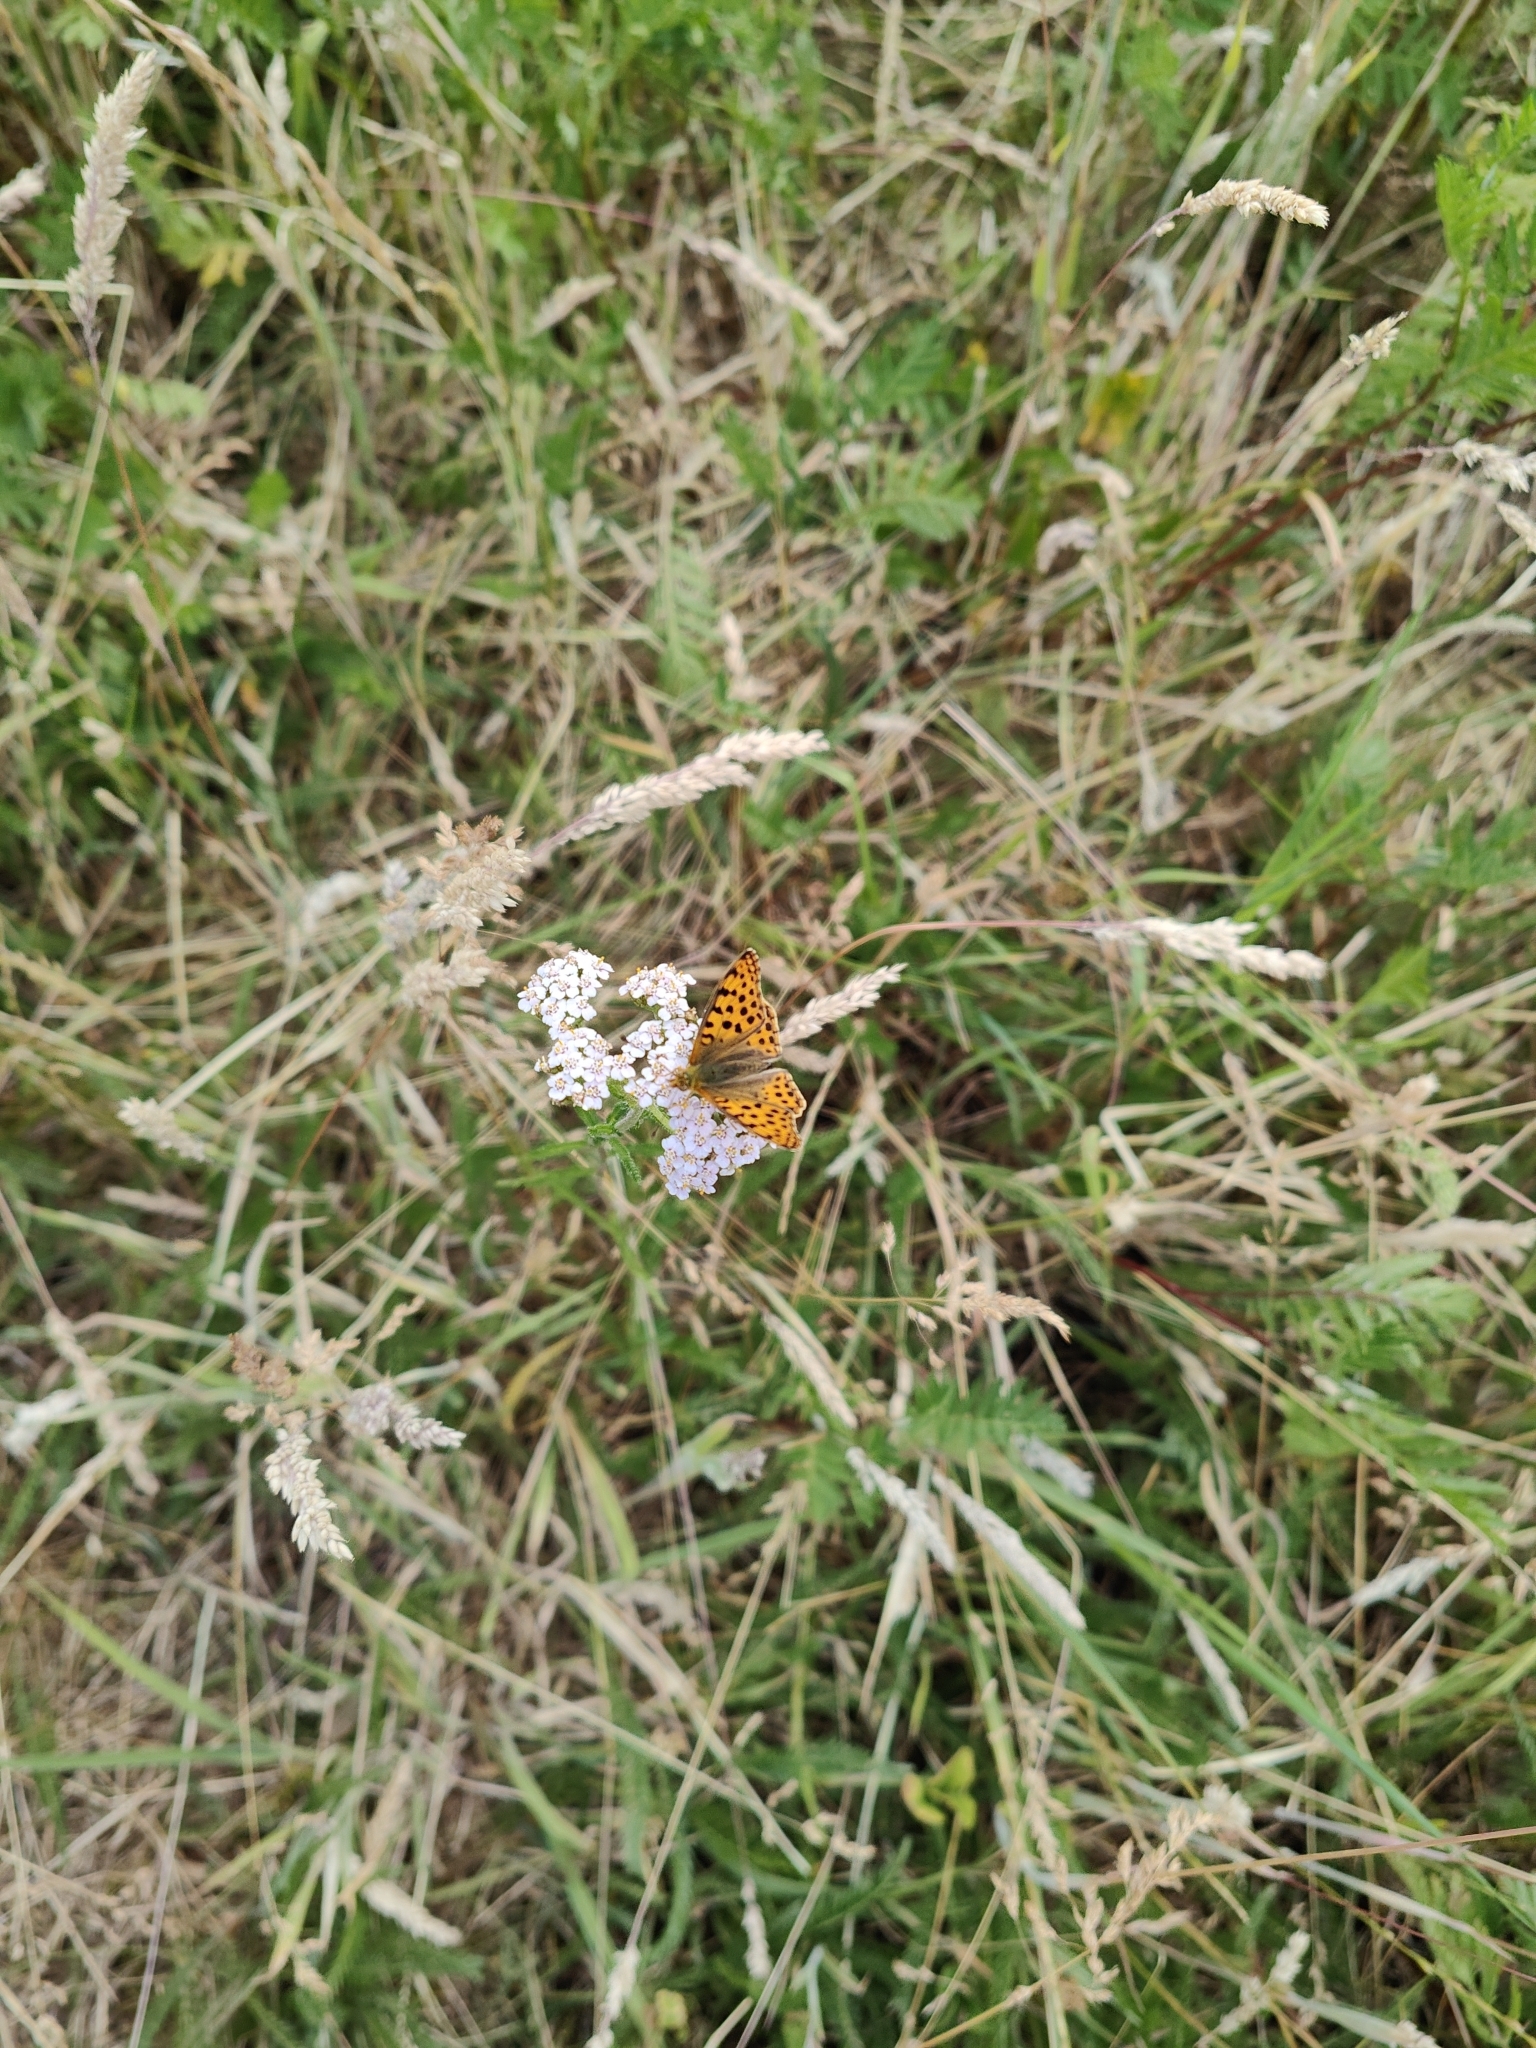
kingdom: Animalia
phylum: Arthropoda
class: Insecta
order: Lepidoptera
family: Nymphalidae
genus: Issoria
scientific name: Issoria lathonia
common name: Queen of spain fritillary
